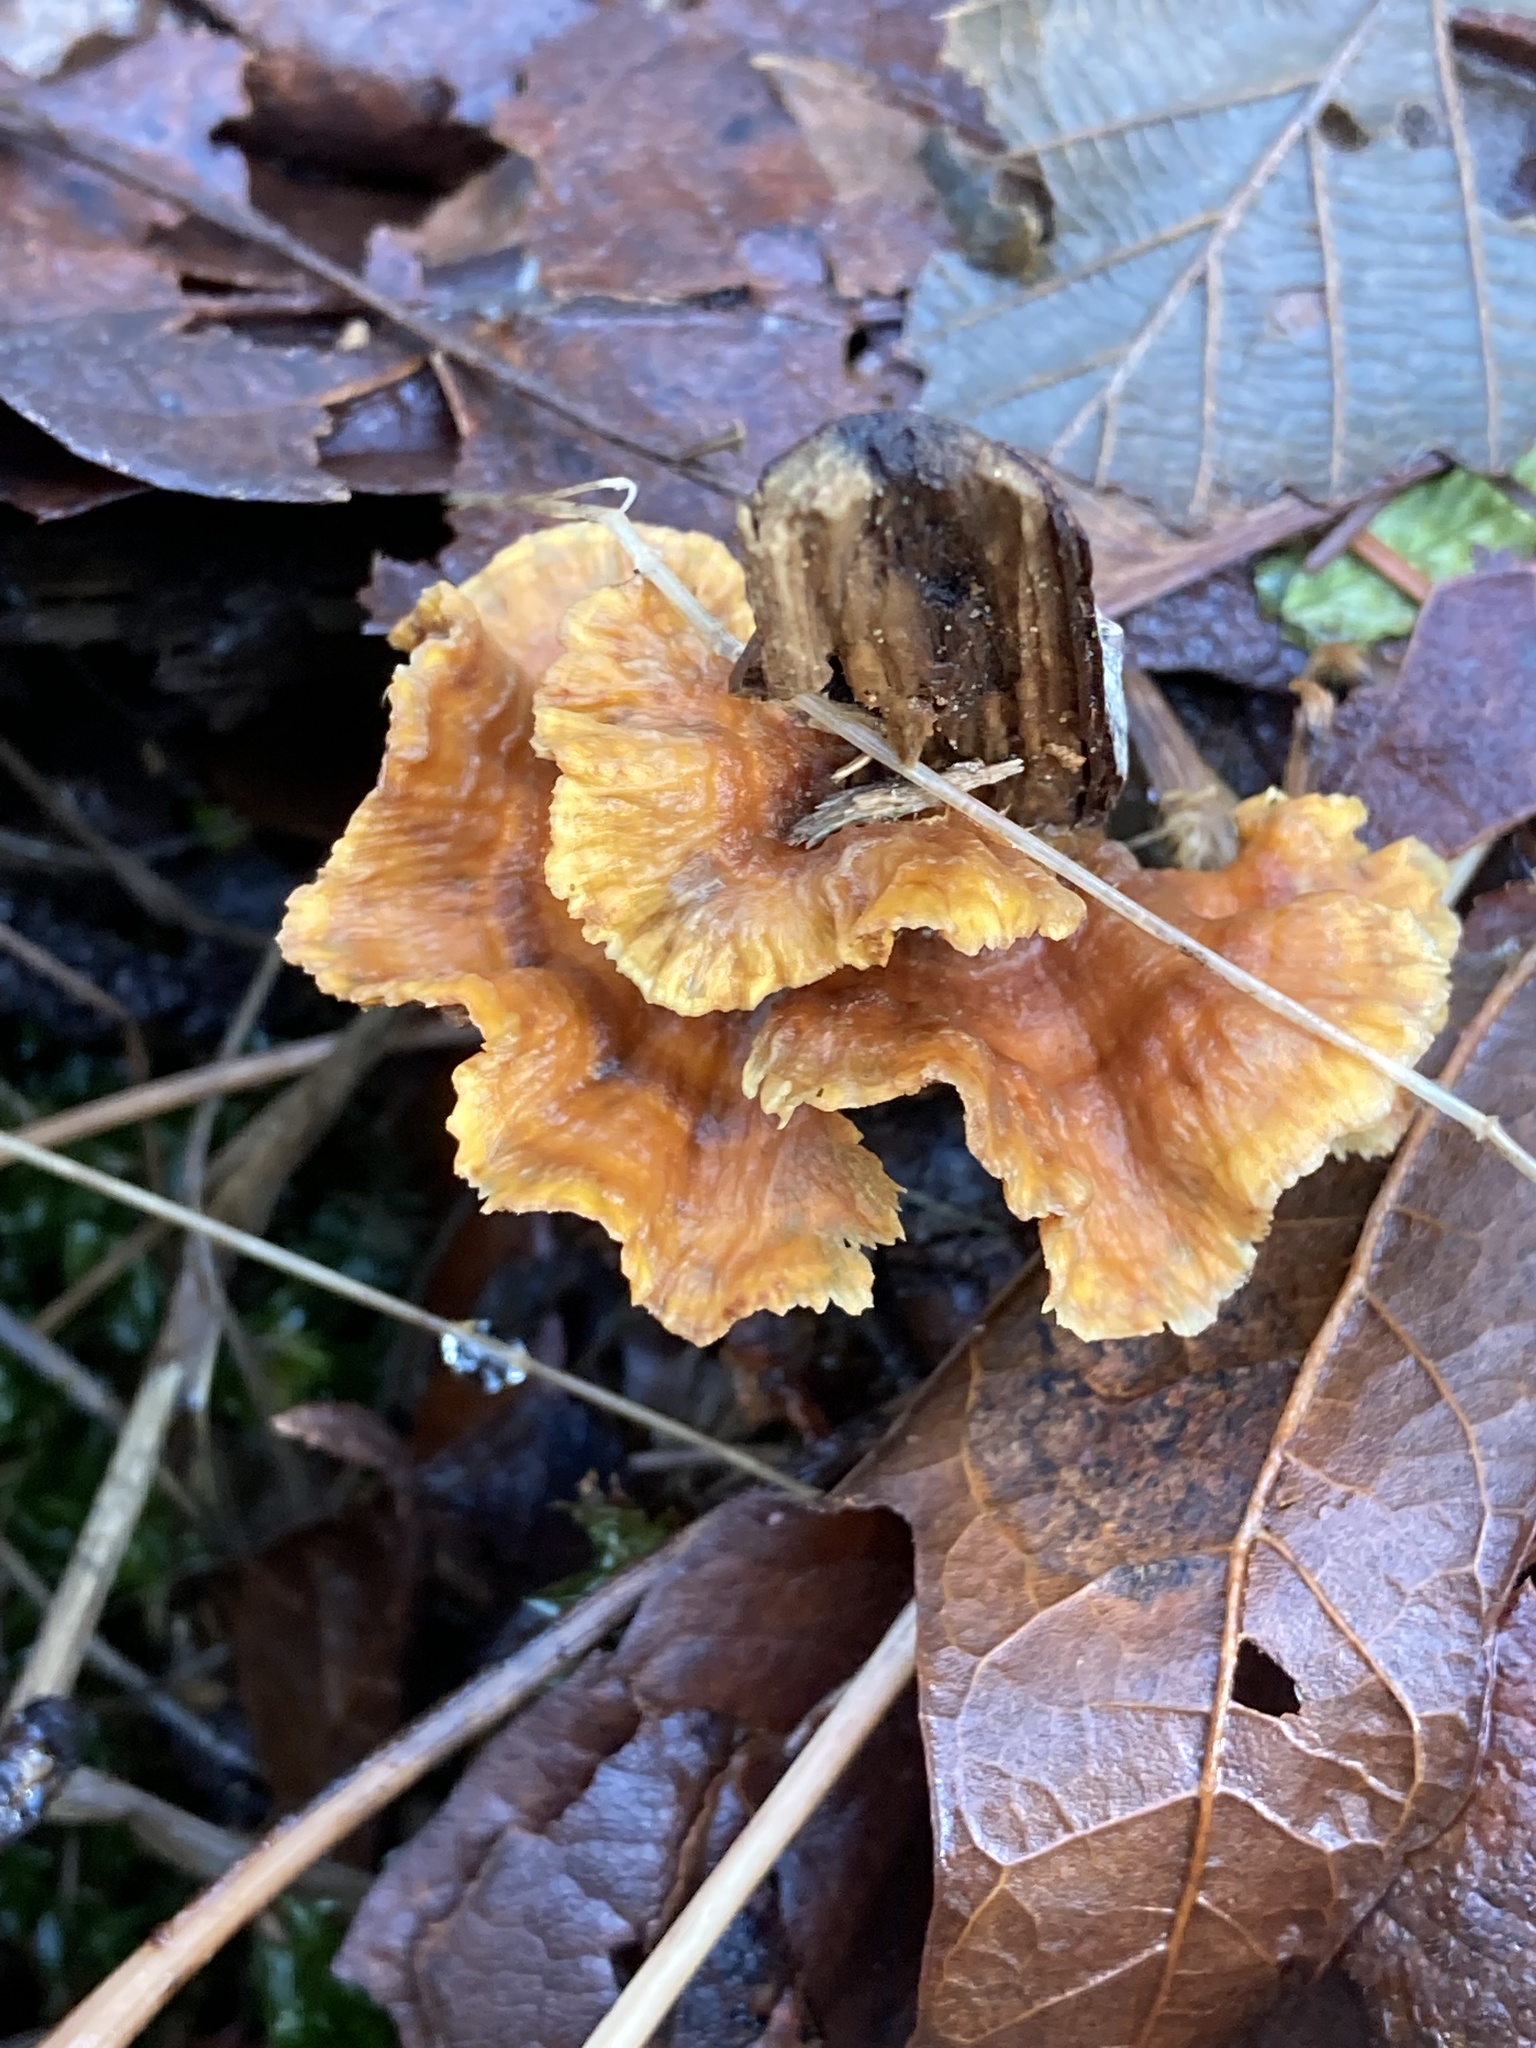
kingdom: Fungi
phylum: Basidiomycota
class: Agaricomycetes
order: Russulales
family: Stereaceae
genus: Stereum
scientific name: Stereum complicatum
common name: Crowded parchment
